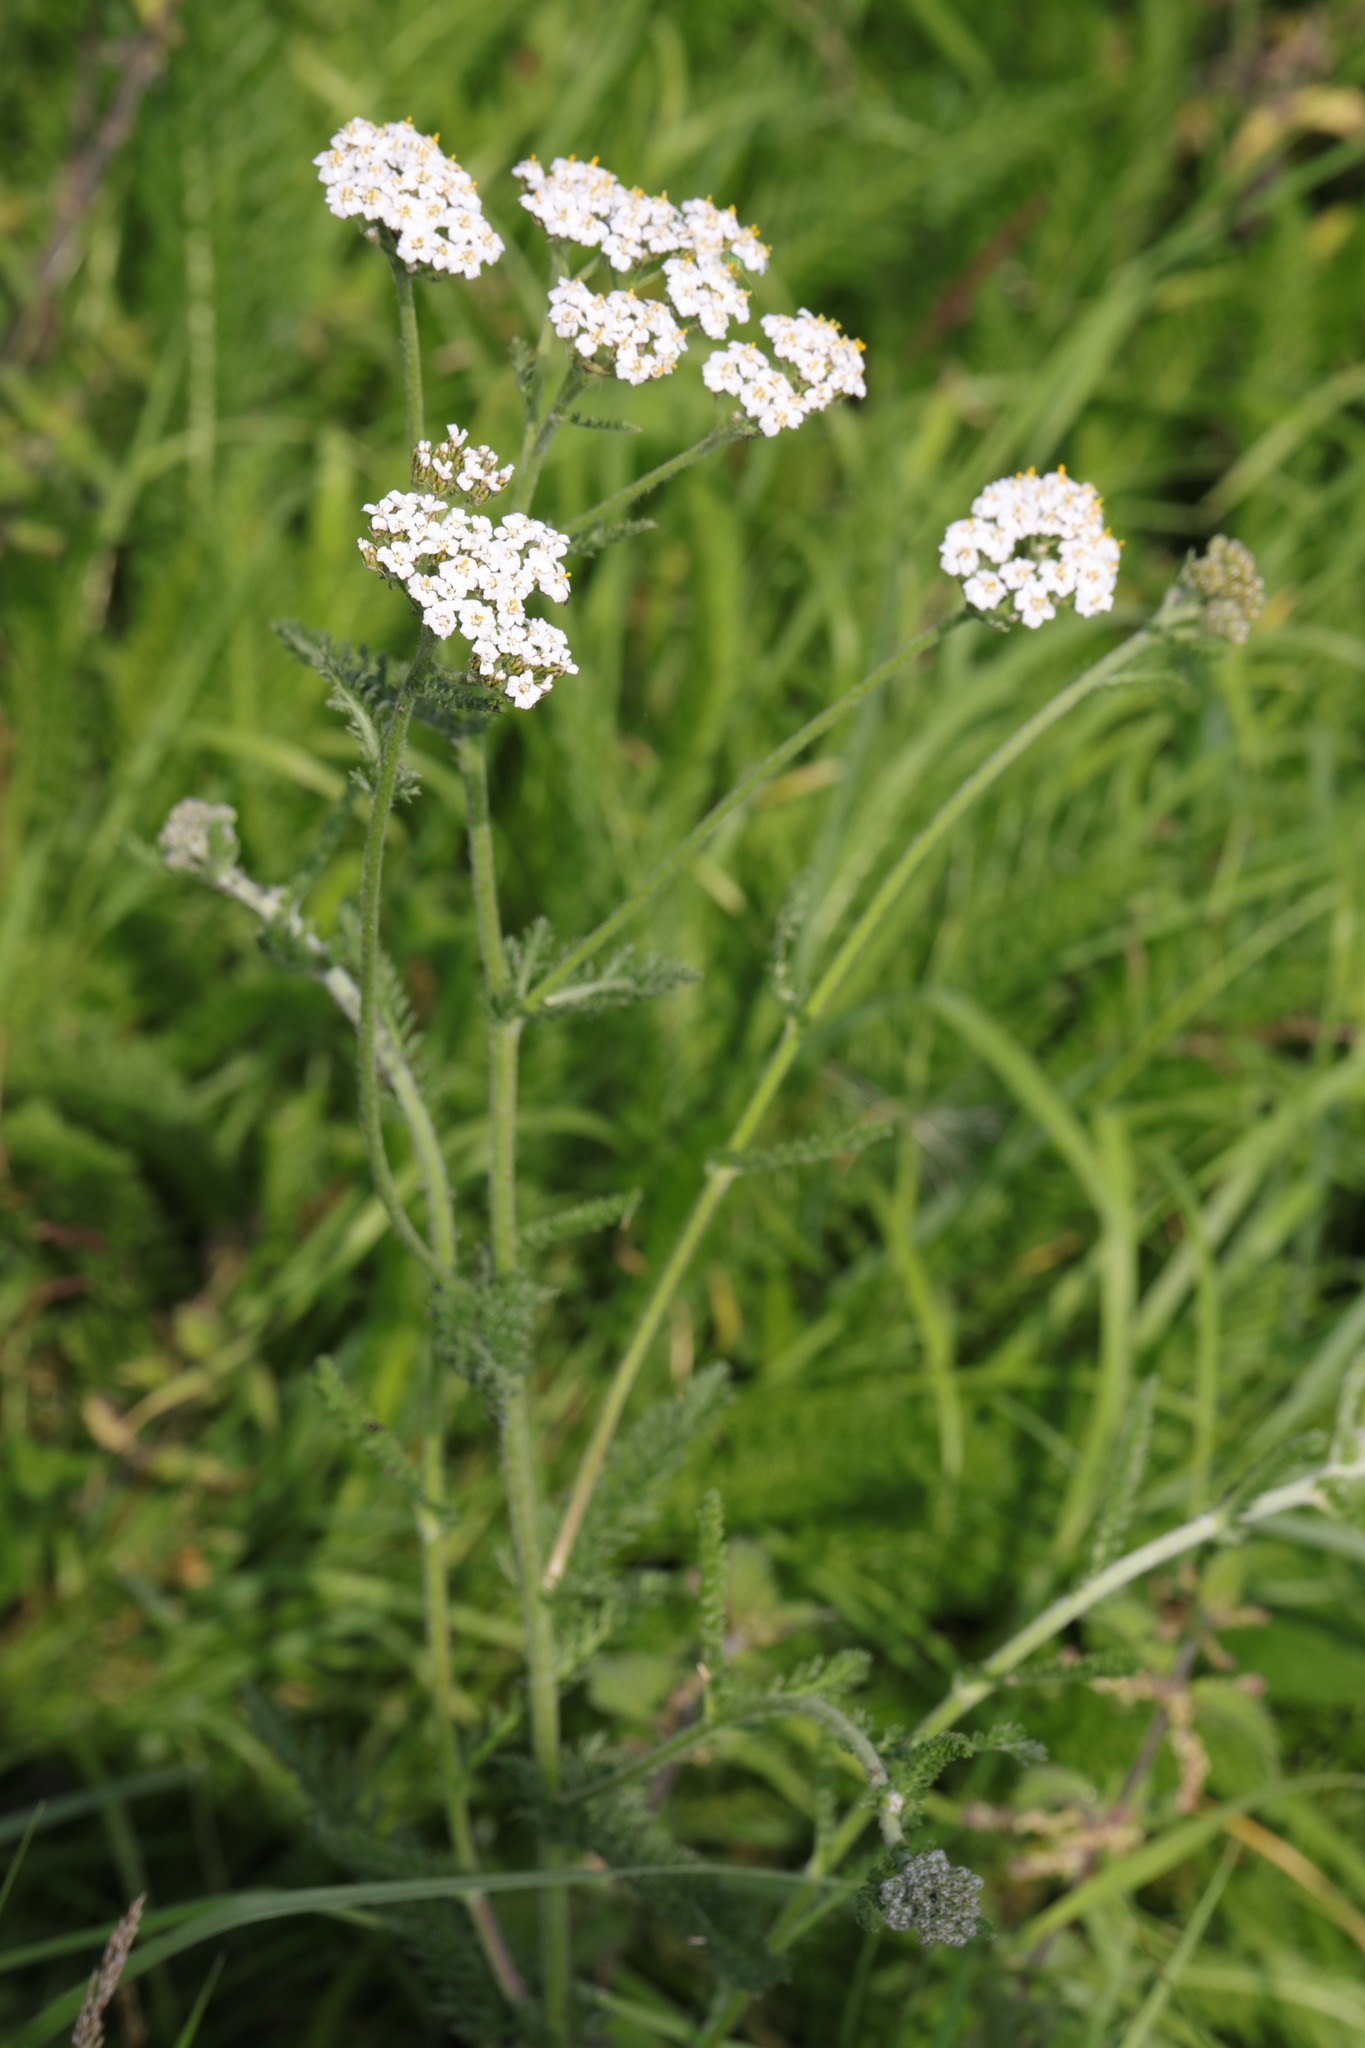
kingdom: Plantae
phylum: Tracheophyta
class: Magnoliopsida
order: Asterales
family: Asteraceae
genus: Achillea
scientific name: Achillea millefolium
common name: Yarrow
